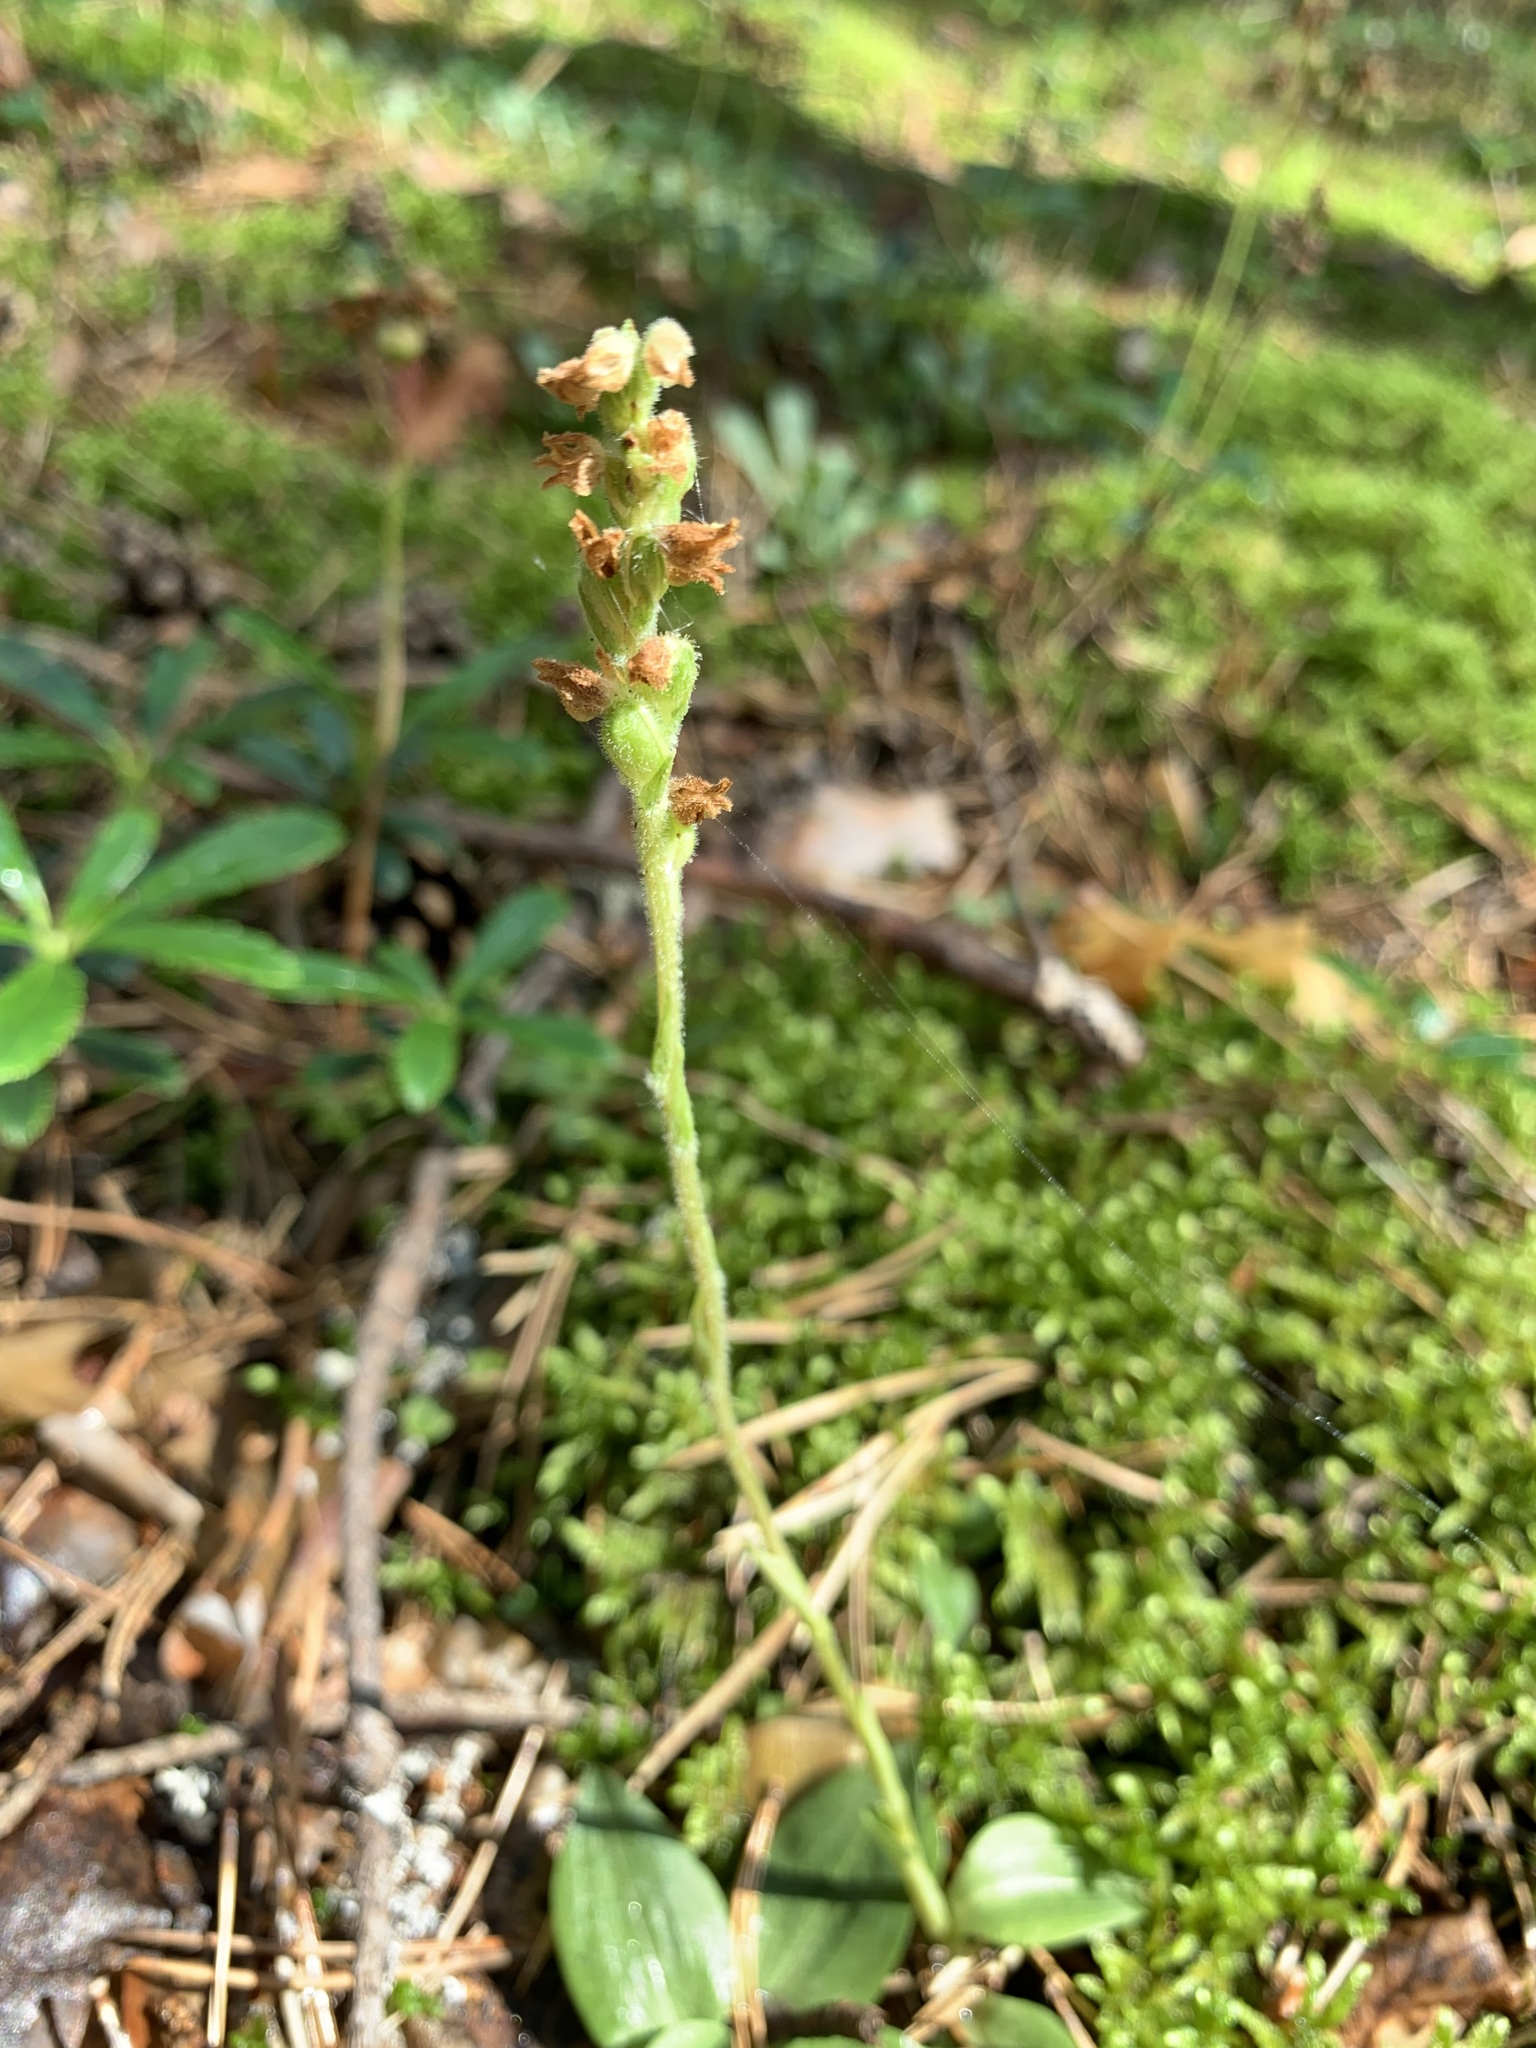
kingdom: Plantae
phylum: Tracheophyta
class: Liliopsida
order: Asparagales
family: Orchidaceae
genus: Goodyera
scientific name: Goodyera repens
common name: Creeping lady's-tresses
